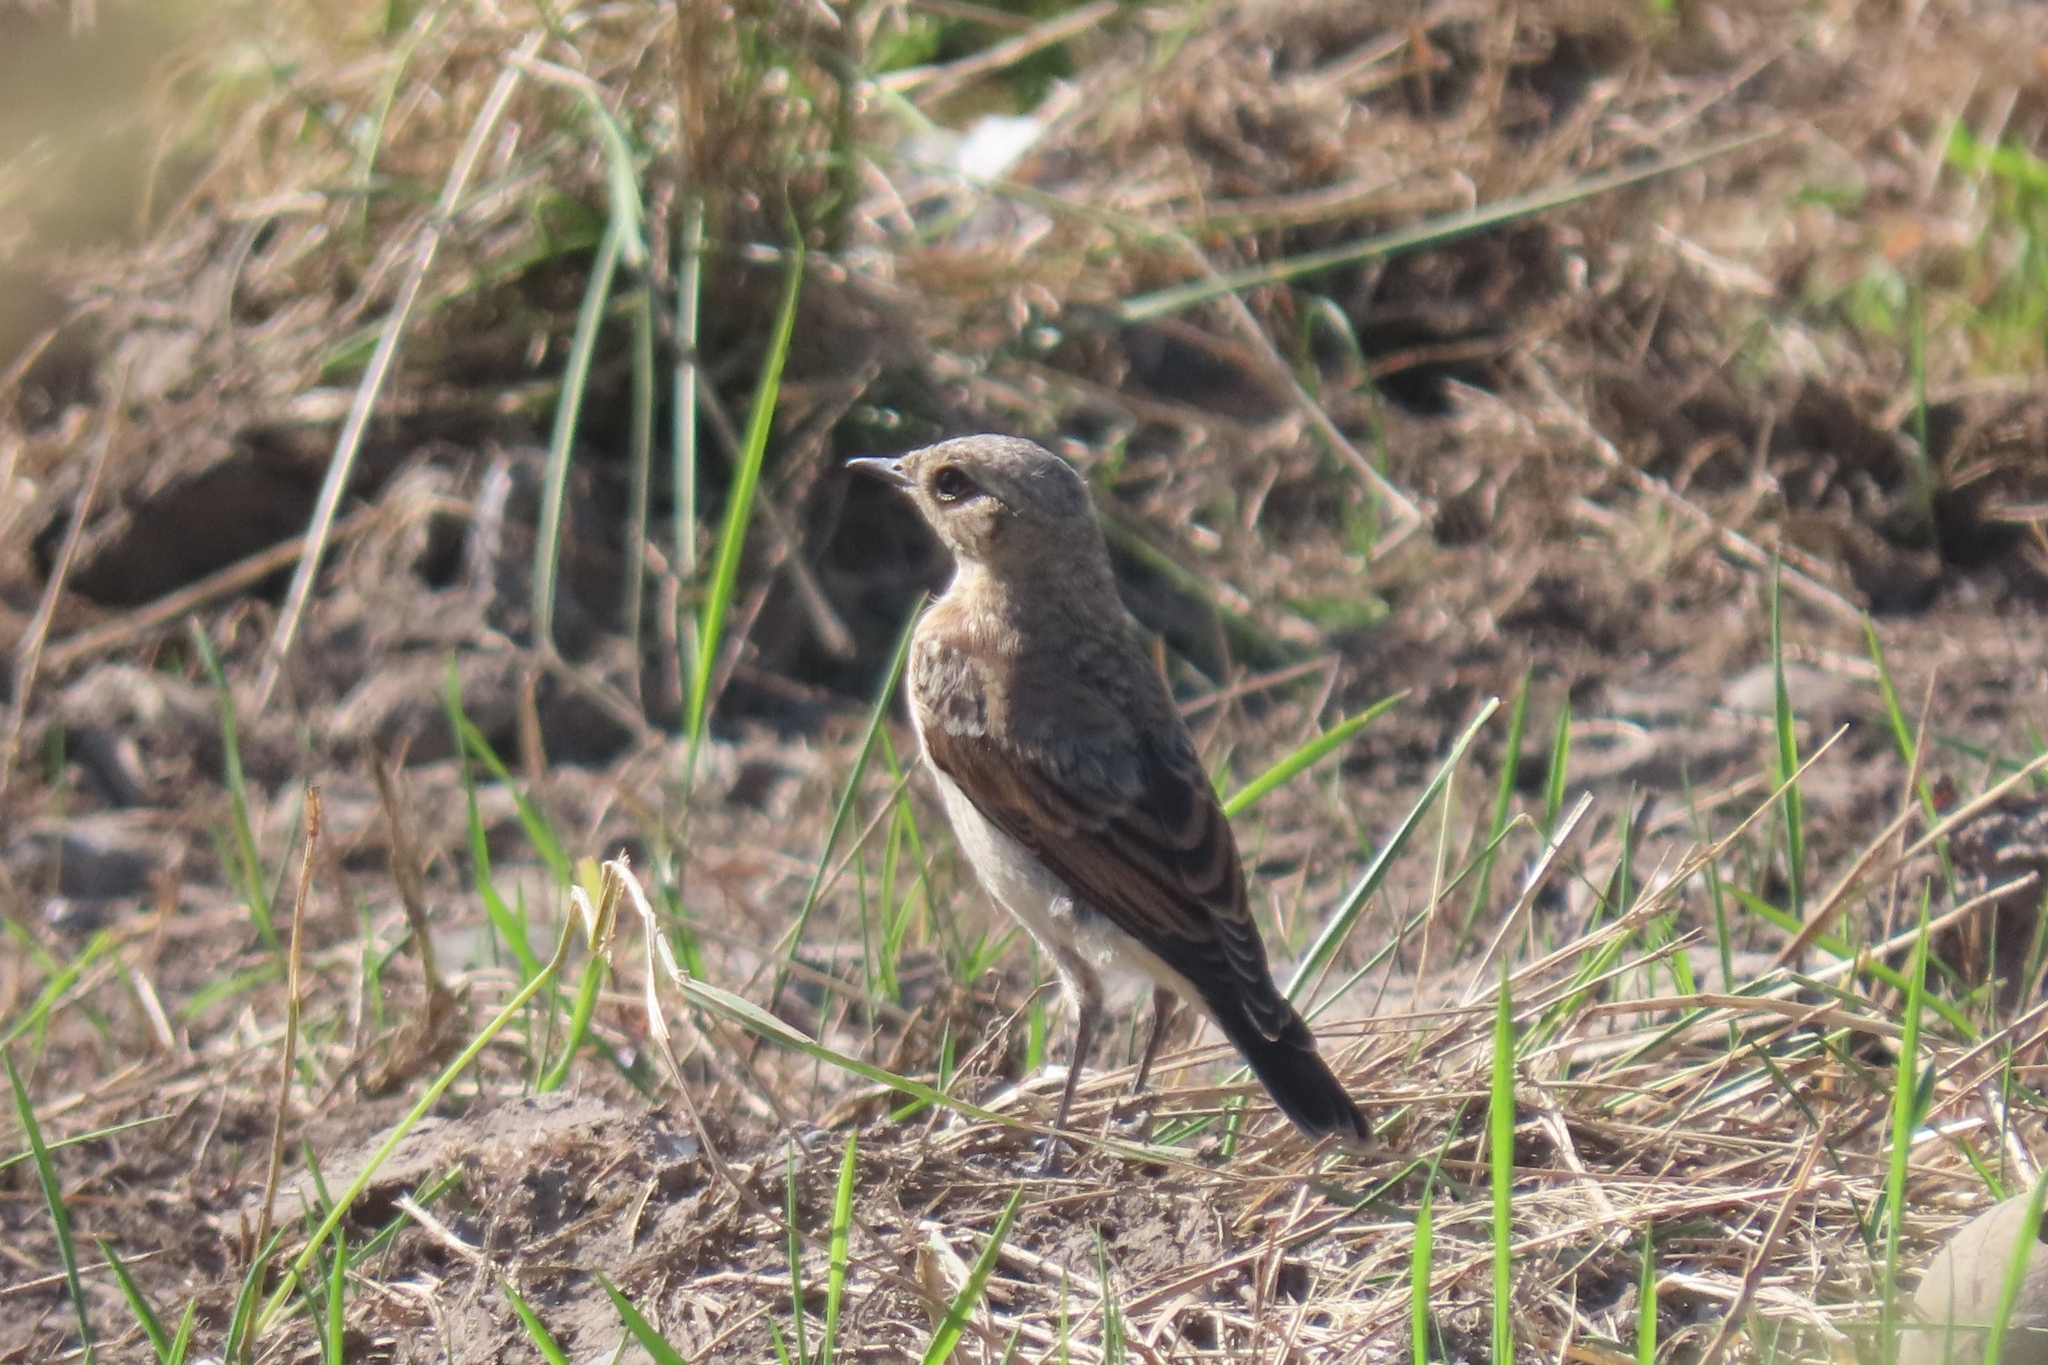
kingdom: Animalia
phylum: Chordata
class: Aves
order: Passeriformes
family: Muscicapidae
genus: Oenanthe
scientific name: Oenanthe oenanthe
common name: Northern wheatear
